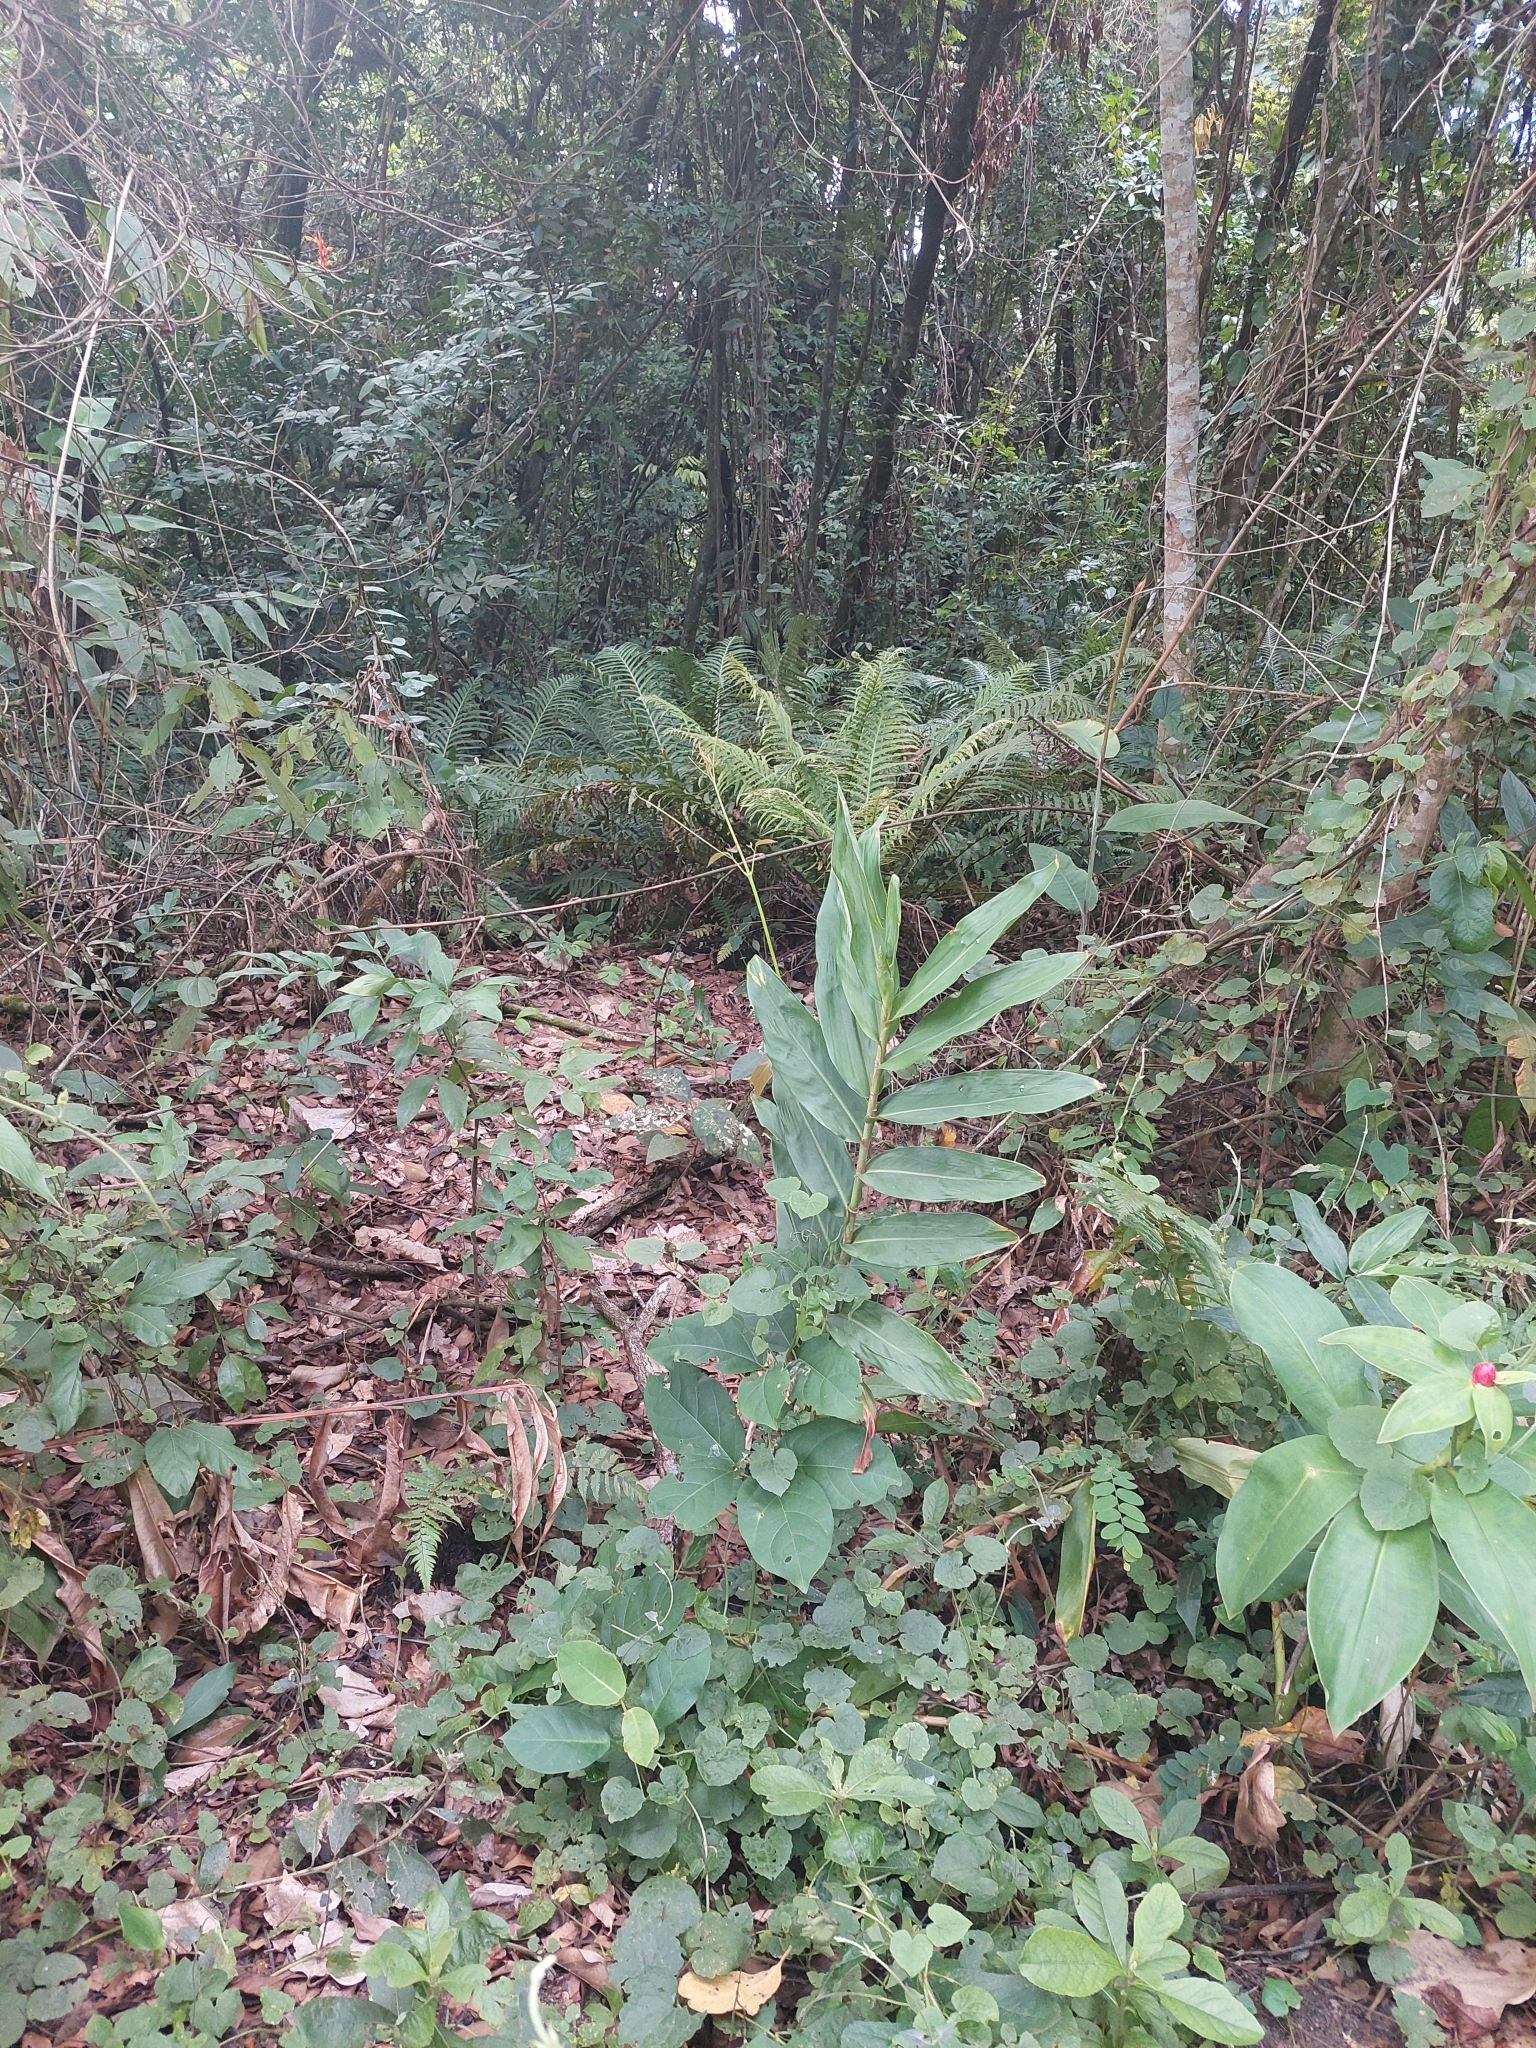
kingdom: Plantae
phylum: Tracheophyta
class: Liliopsida
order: Zingiberales
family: Zingiberaceae
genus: Hedychium
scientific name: Hedychium coronarium
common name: White garland-lily
